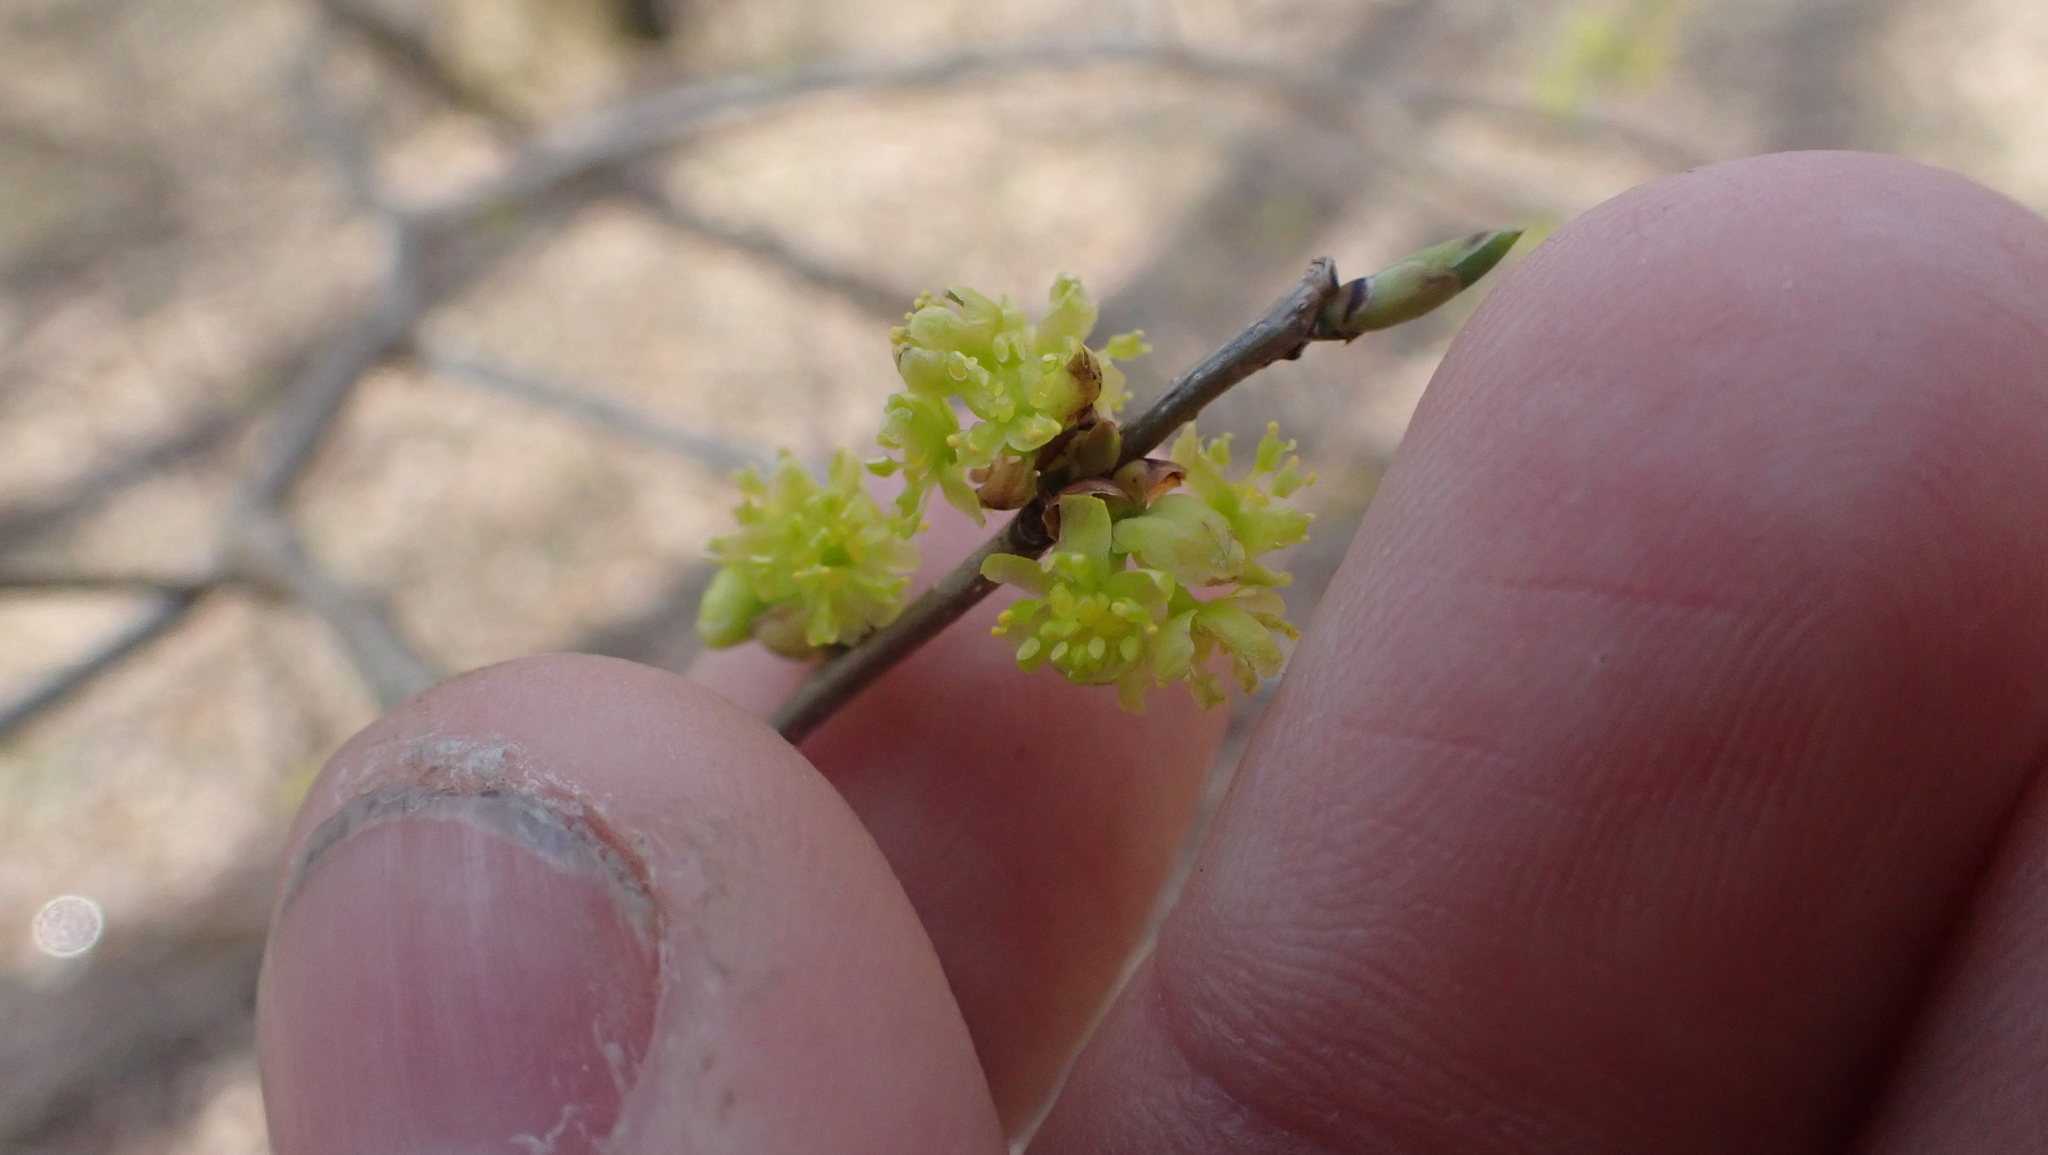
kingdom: Plantae
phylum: Tracheophyta
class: Magnoliopsida
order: Laurales
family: Lauraceae
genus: Lindera
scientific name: Lindera benzoin
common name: Spicebush
